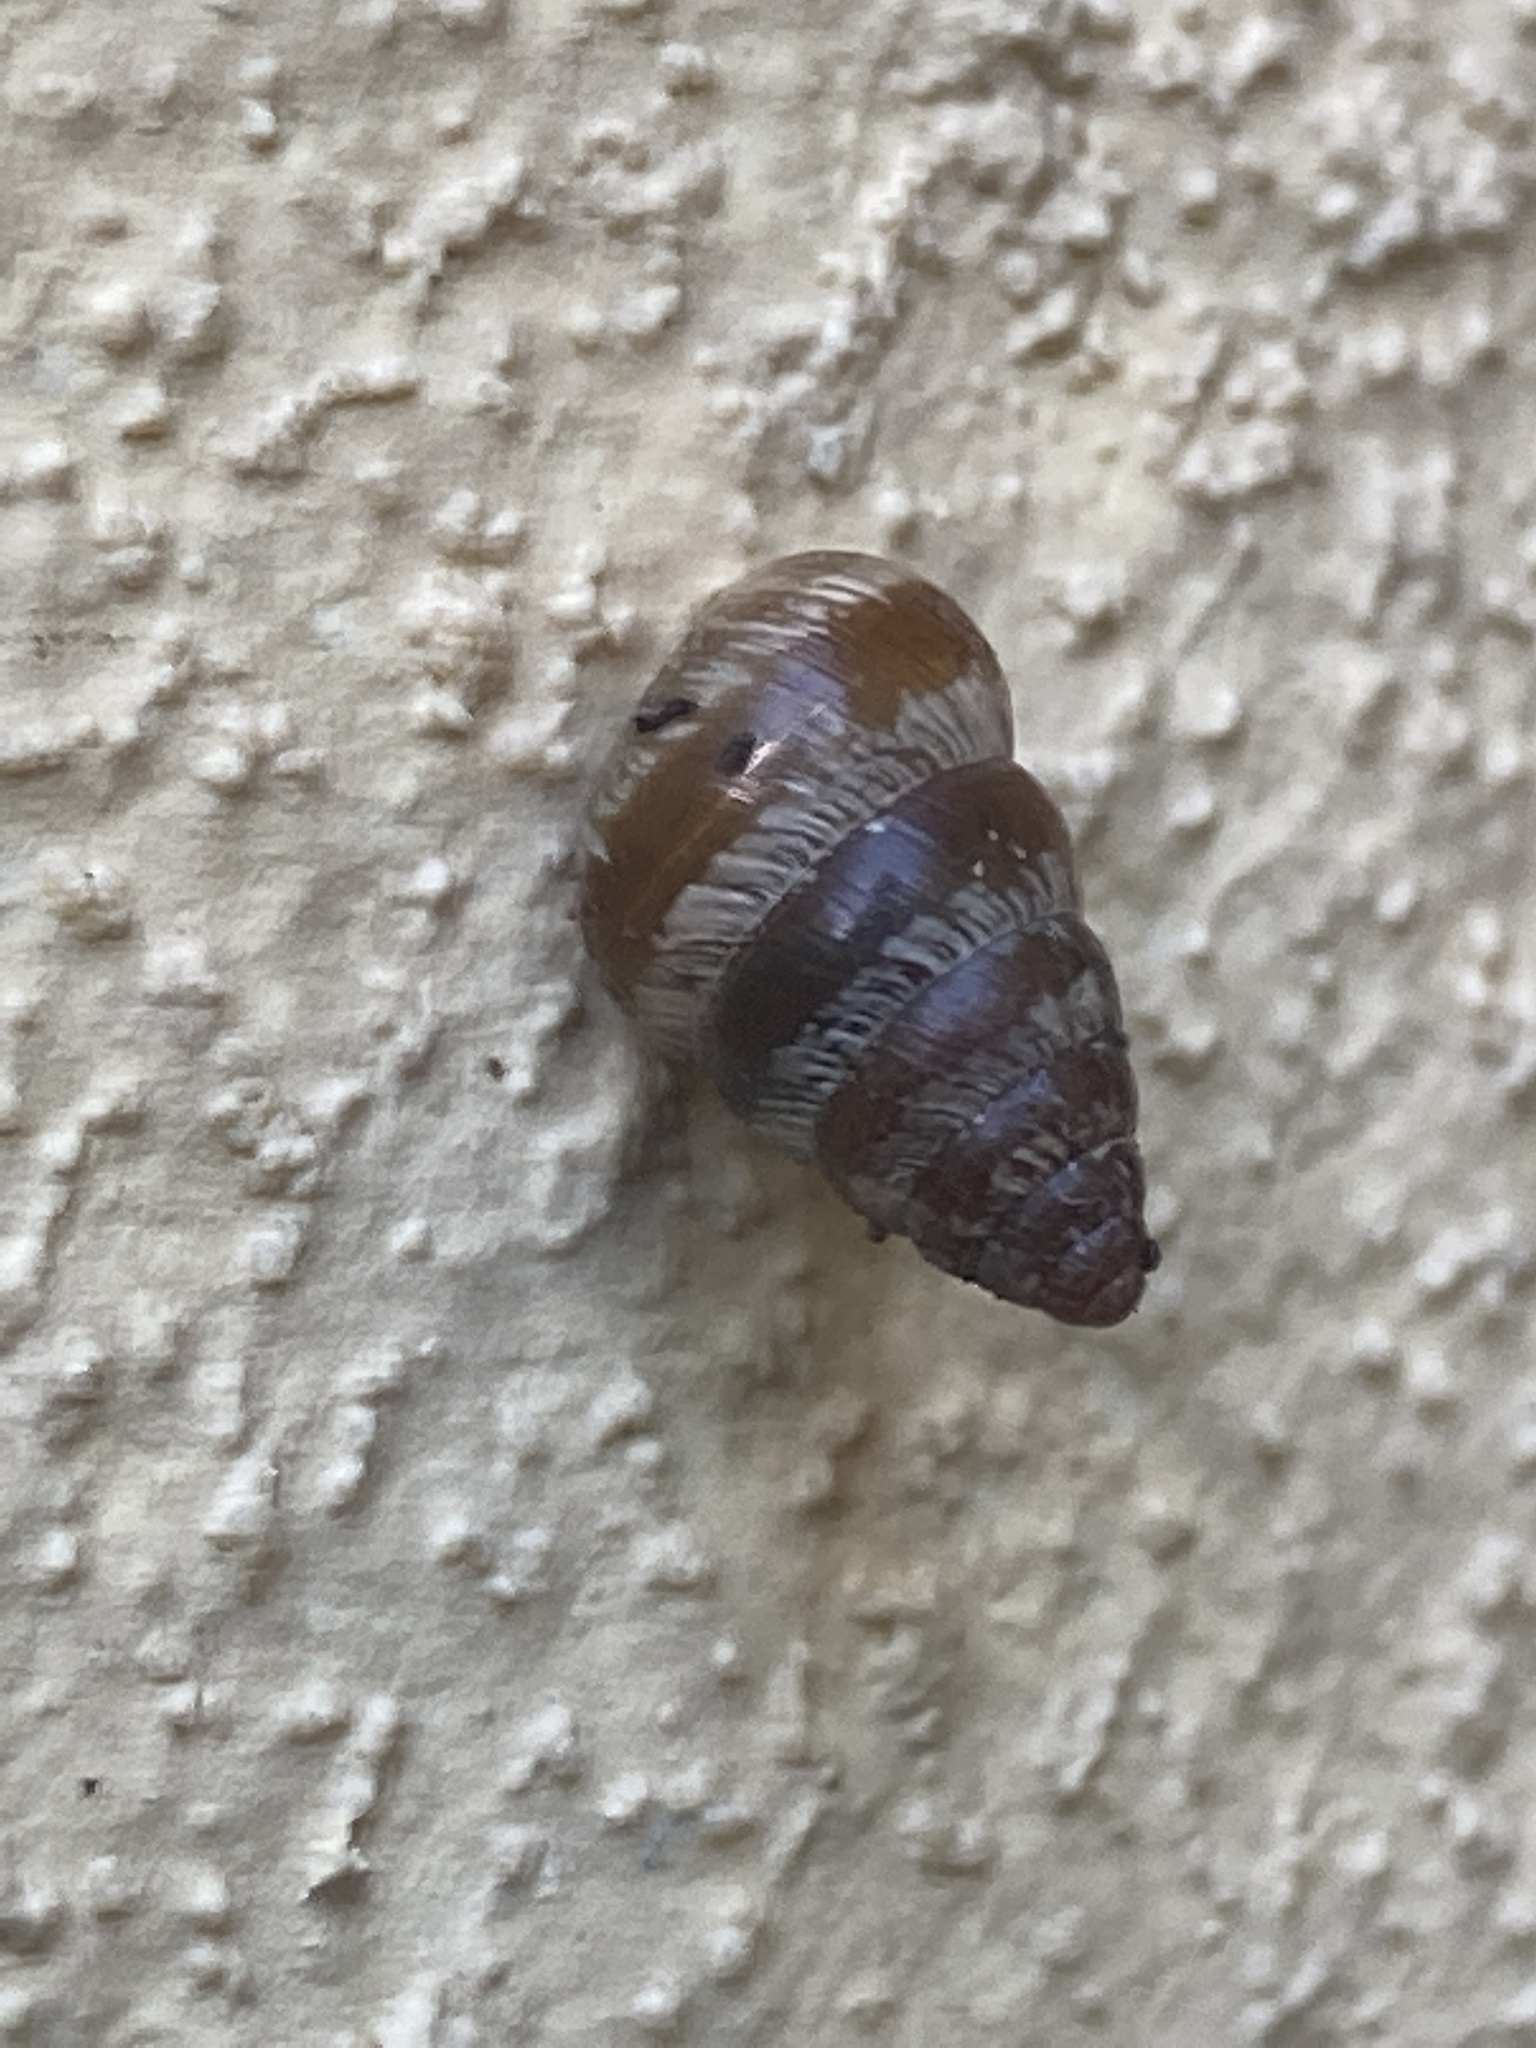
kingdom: Animalia
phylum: Mollusca
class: Gastropoda
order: Stylommatophora
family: Geomitridae
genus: Cochlicella
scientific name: Cochlicella barbara
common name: Potbellied helicellid
